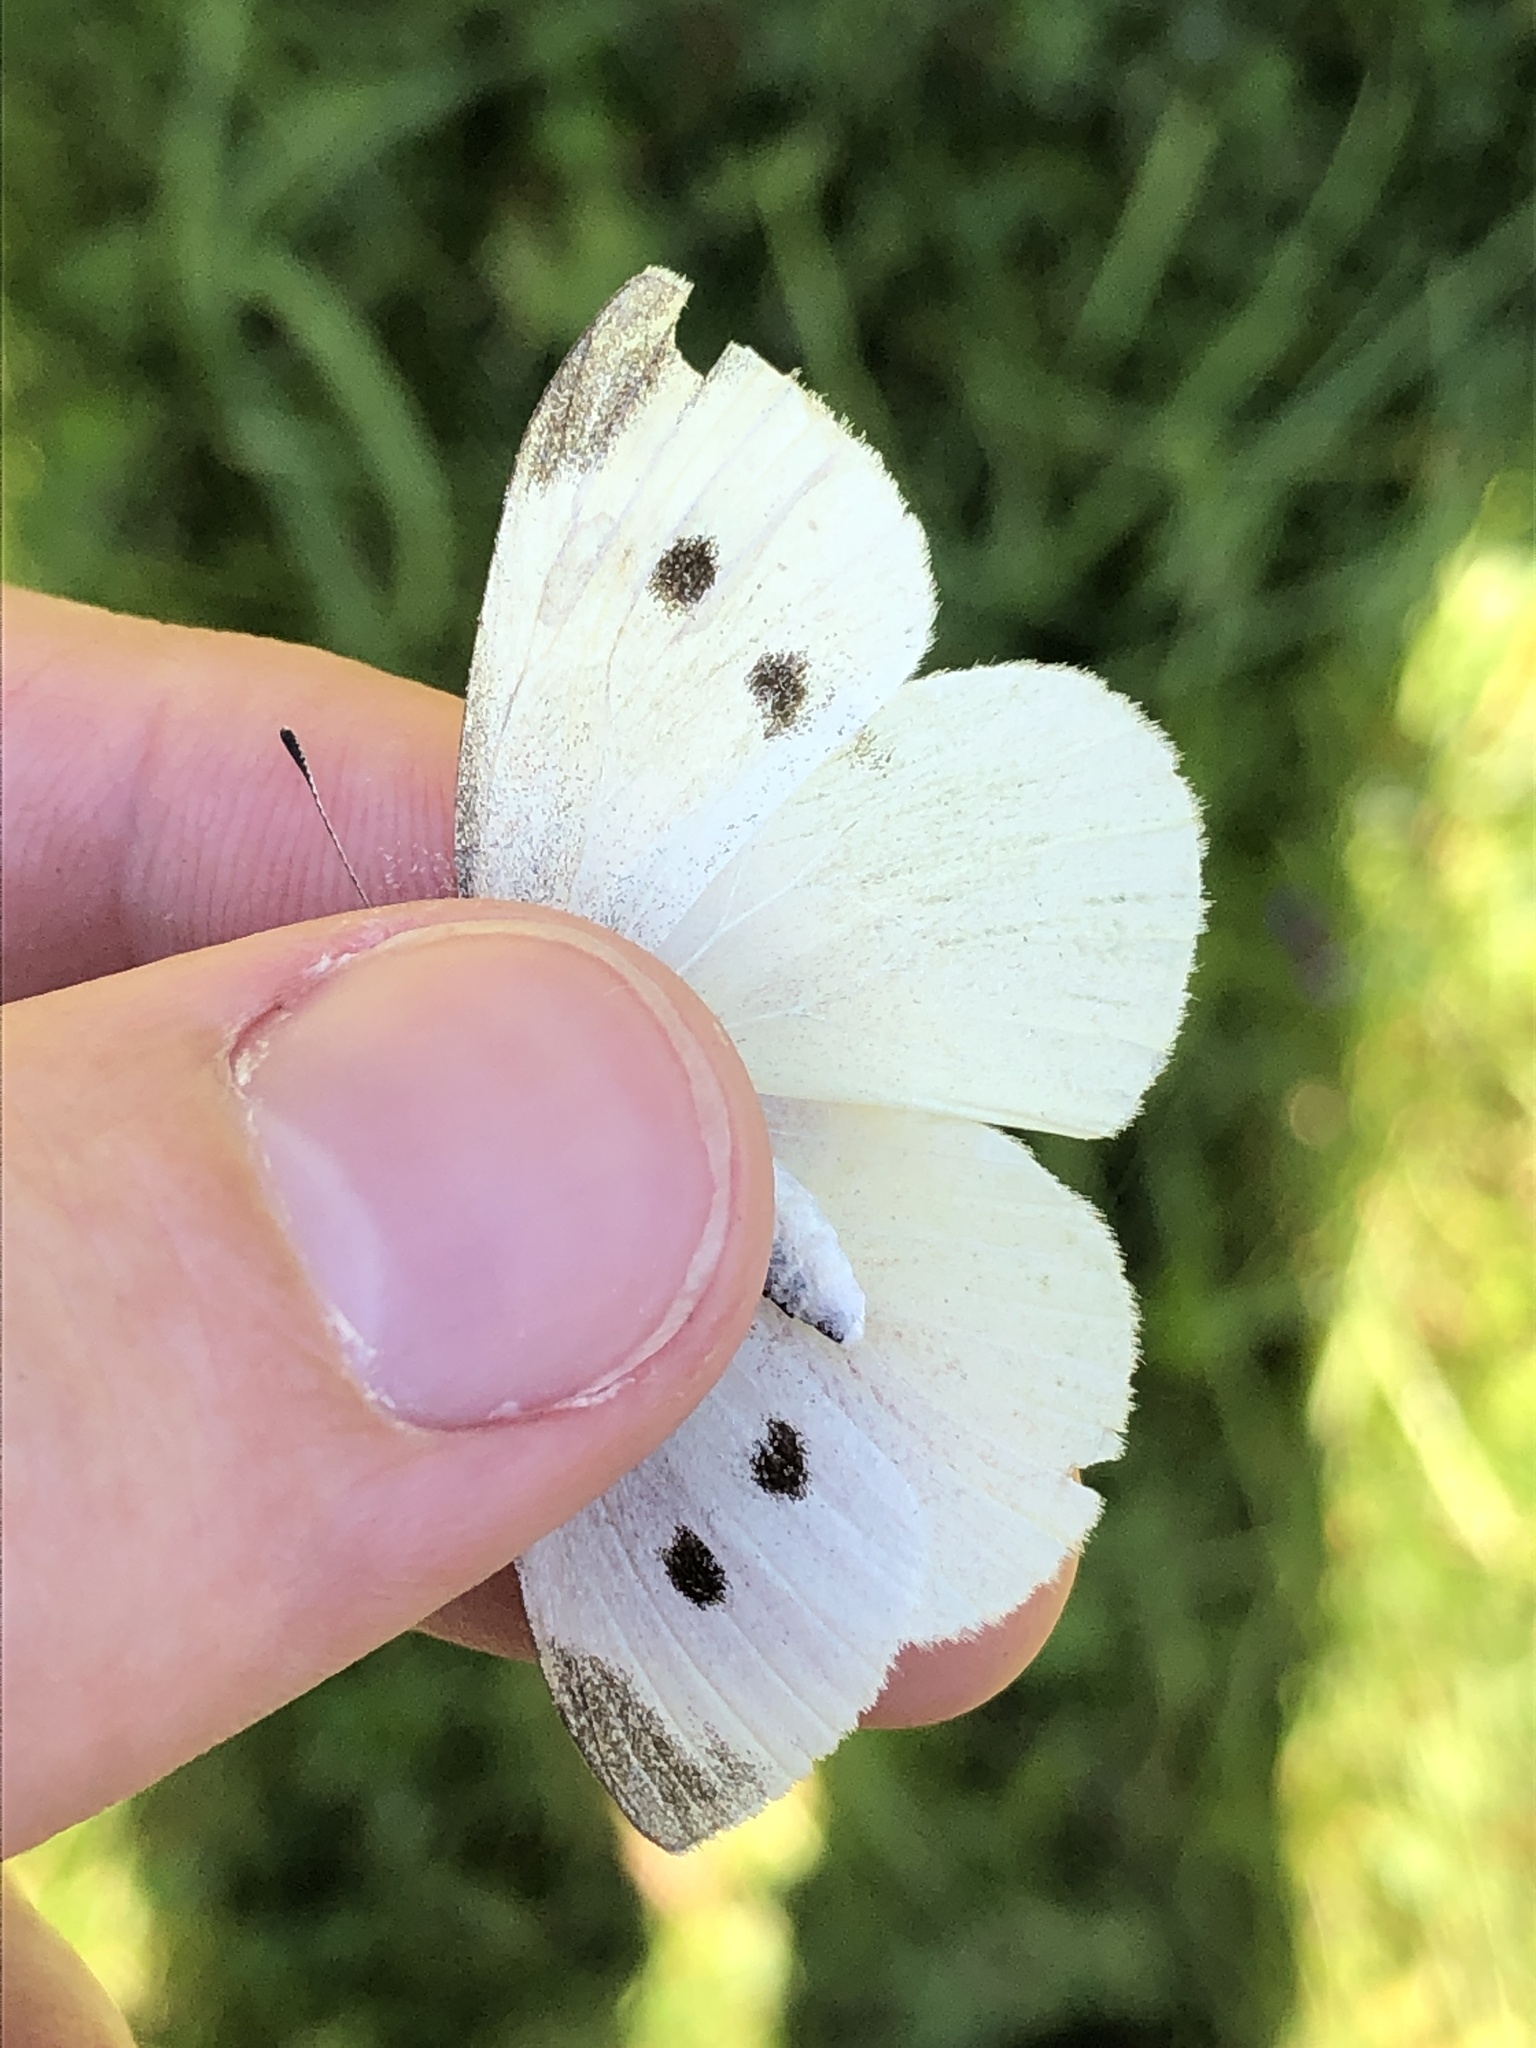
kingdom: Animalia
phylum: Arthropoda
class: Insecta
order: Lepidoptera
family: Pieridae
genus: Pieris
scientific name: Pieris rapae
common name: Small white
